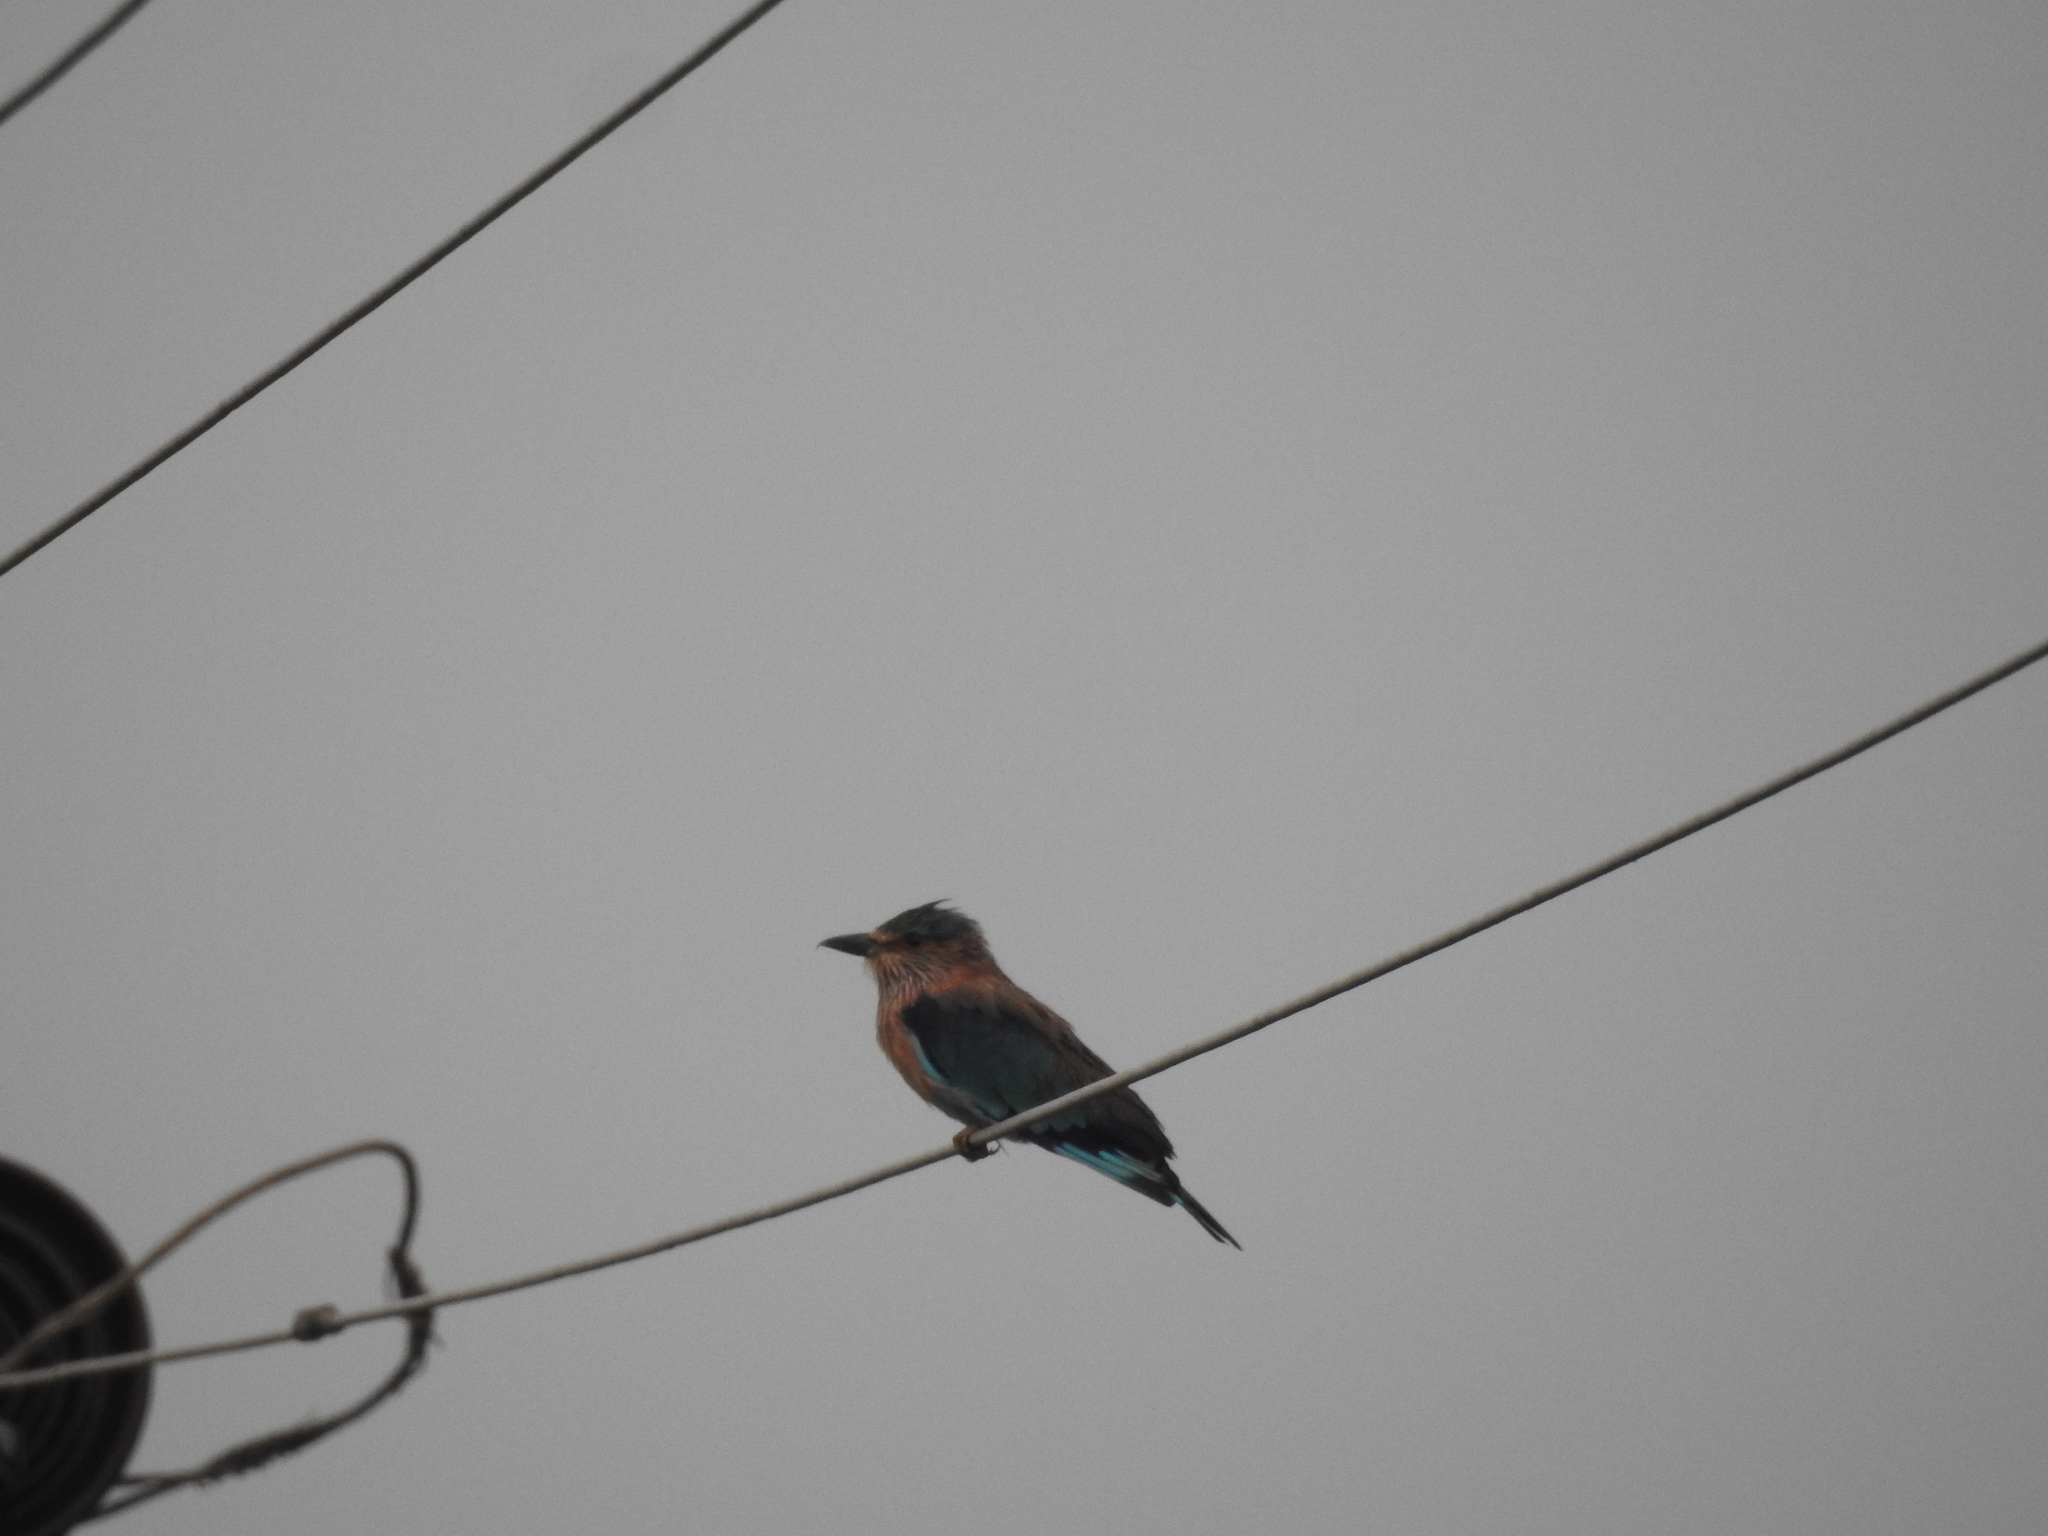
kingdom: Animalia
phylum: Chordata
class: Aves
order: Coraciiformes
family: Coraciidae
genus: Coracias
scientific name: Coracias benghalensis
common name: Indian roller
